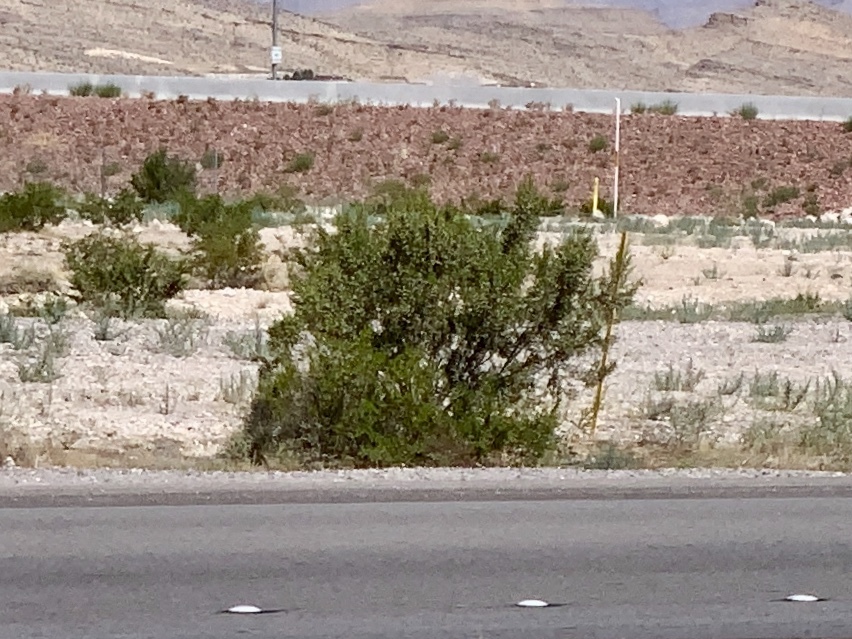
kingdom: Plantae
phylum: Tracheophyta
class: Magnoliopsida
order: Zygophyllales
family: Zygophyllaceae
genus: Larrea
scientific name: Larrea tridentata
